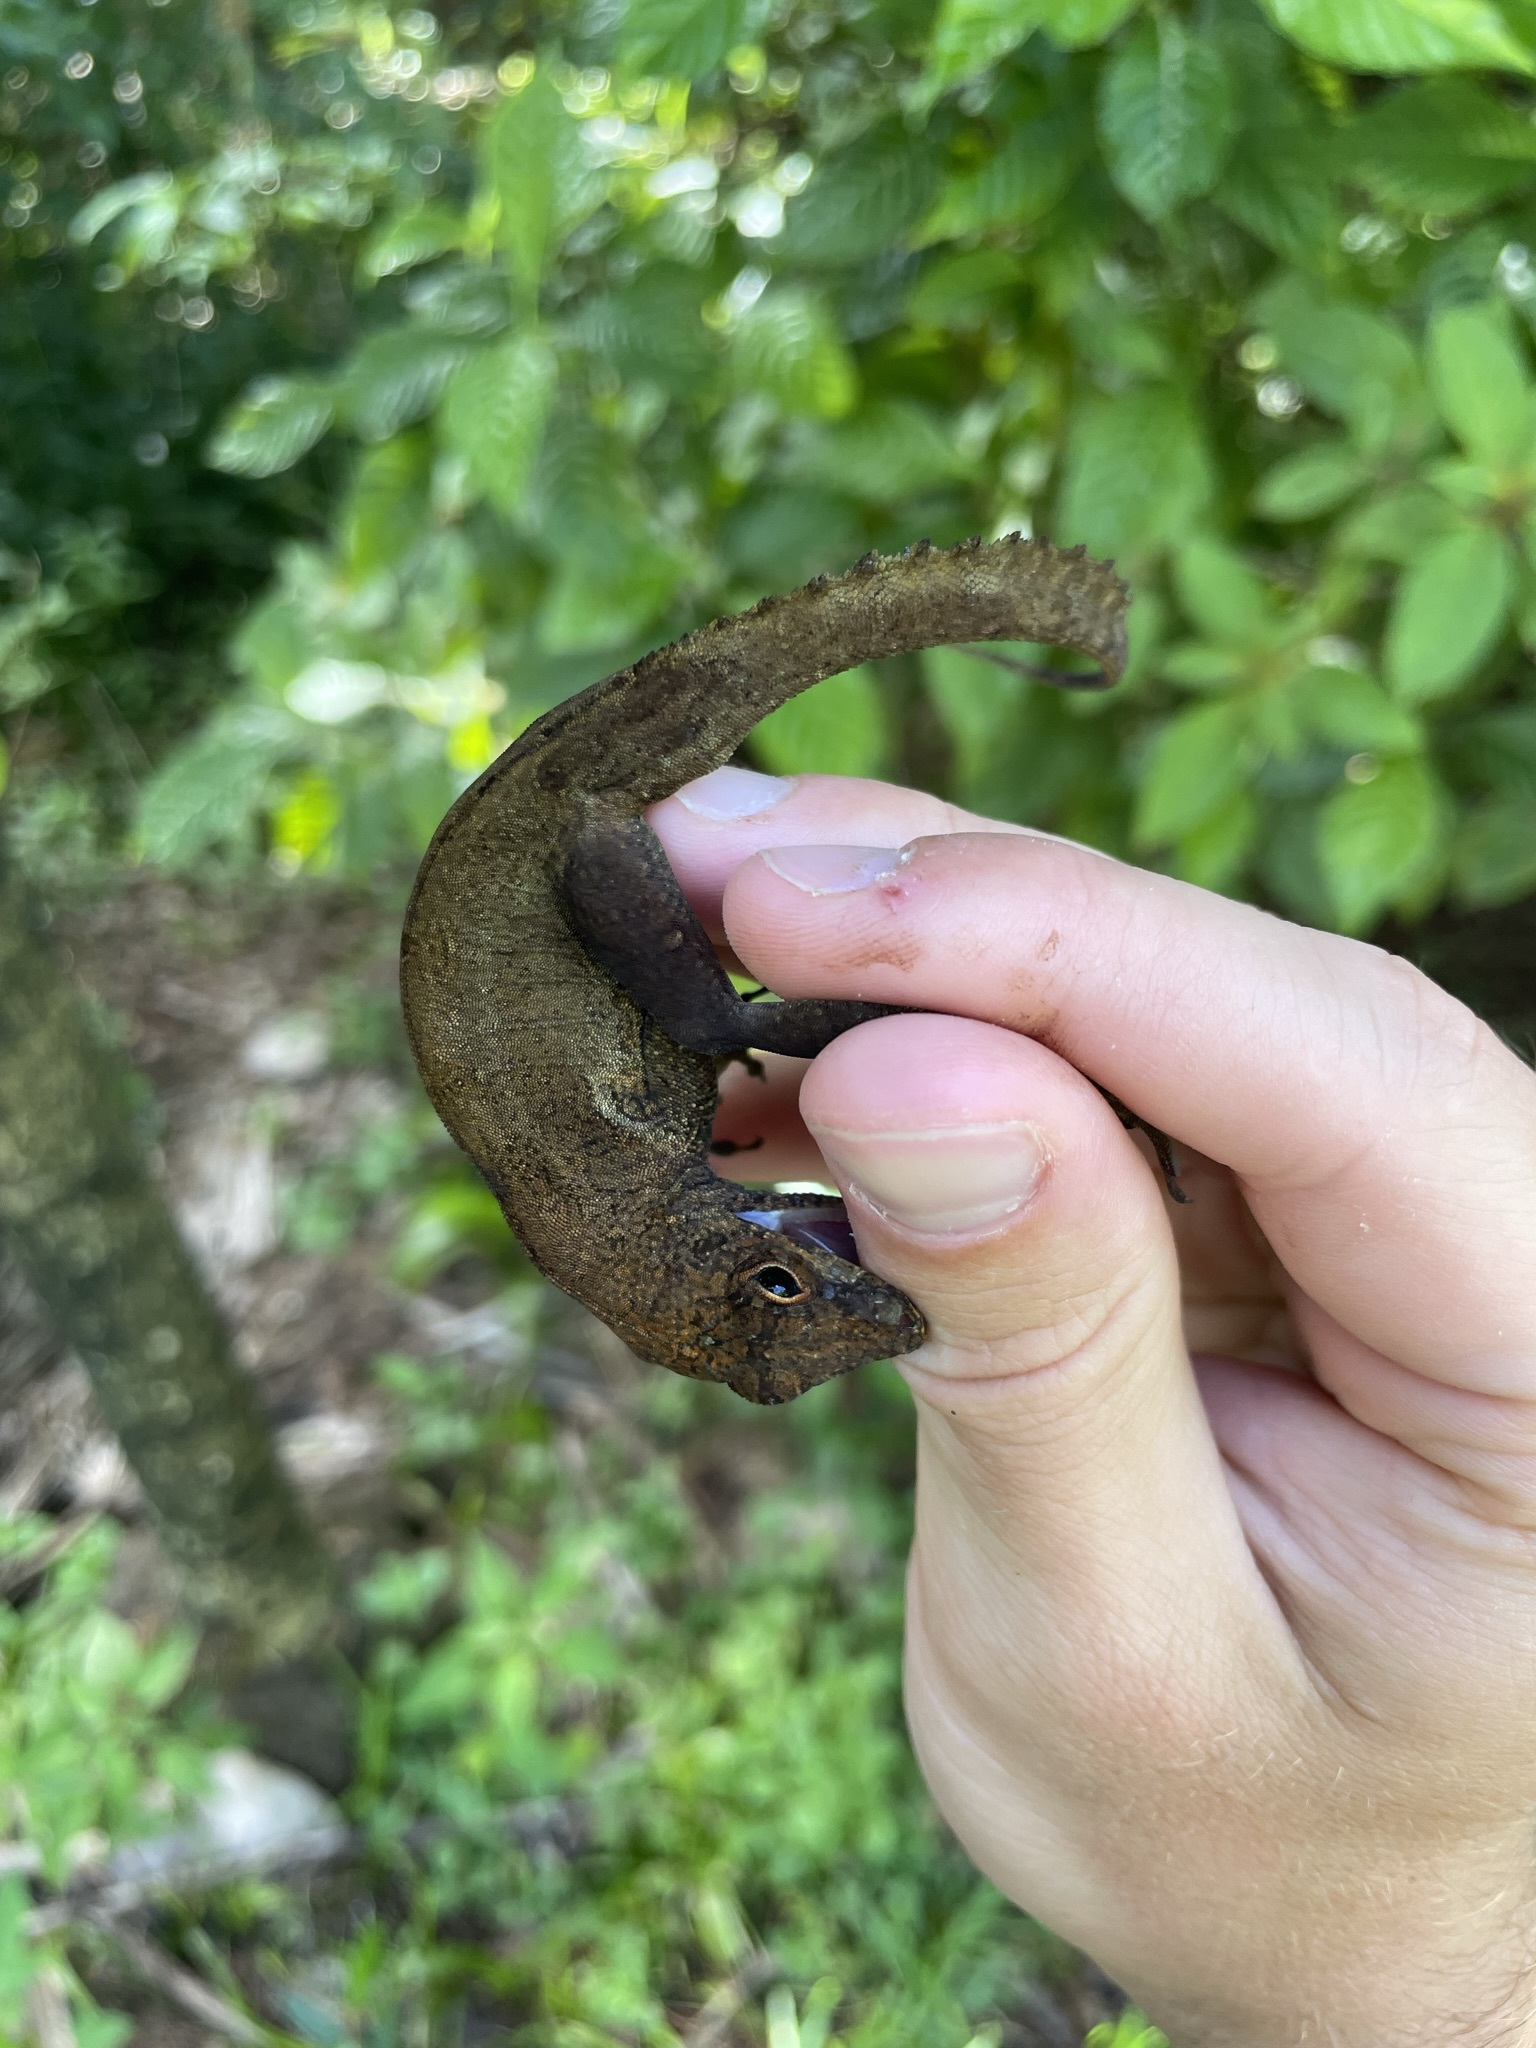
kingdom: Animalia
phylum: Chordata
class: Squamata
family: Dactyloidae
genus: Anolis
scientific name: Anolis cristatellus
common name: Crested anole
